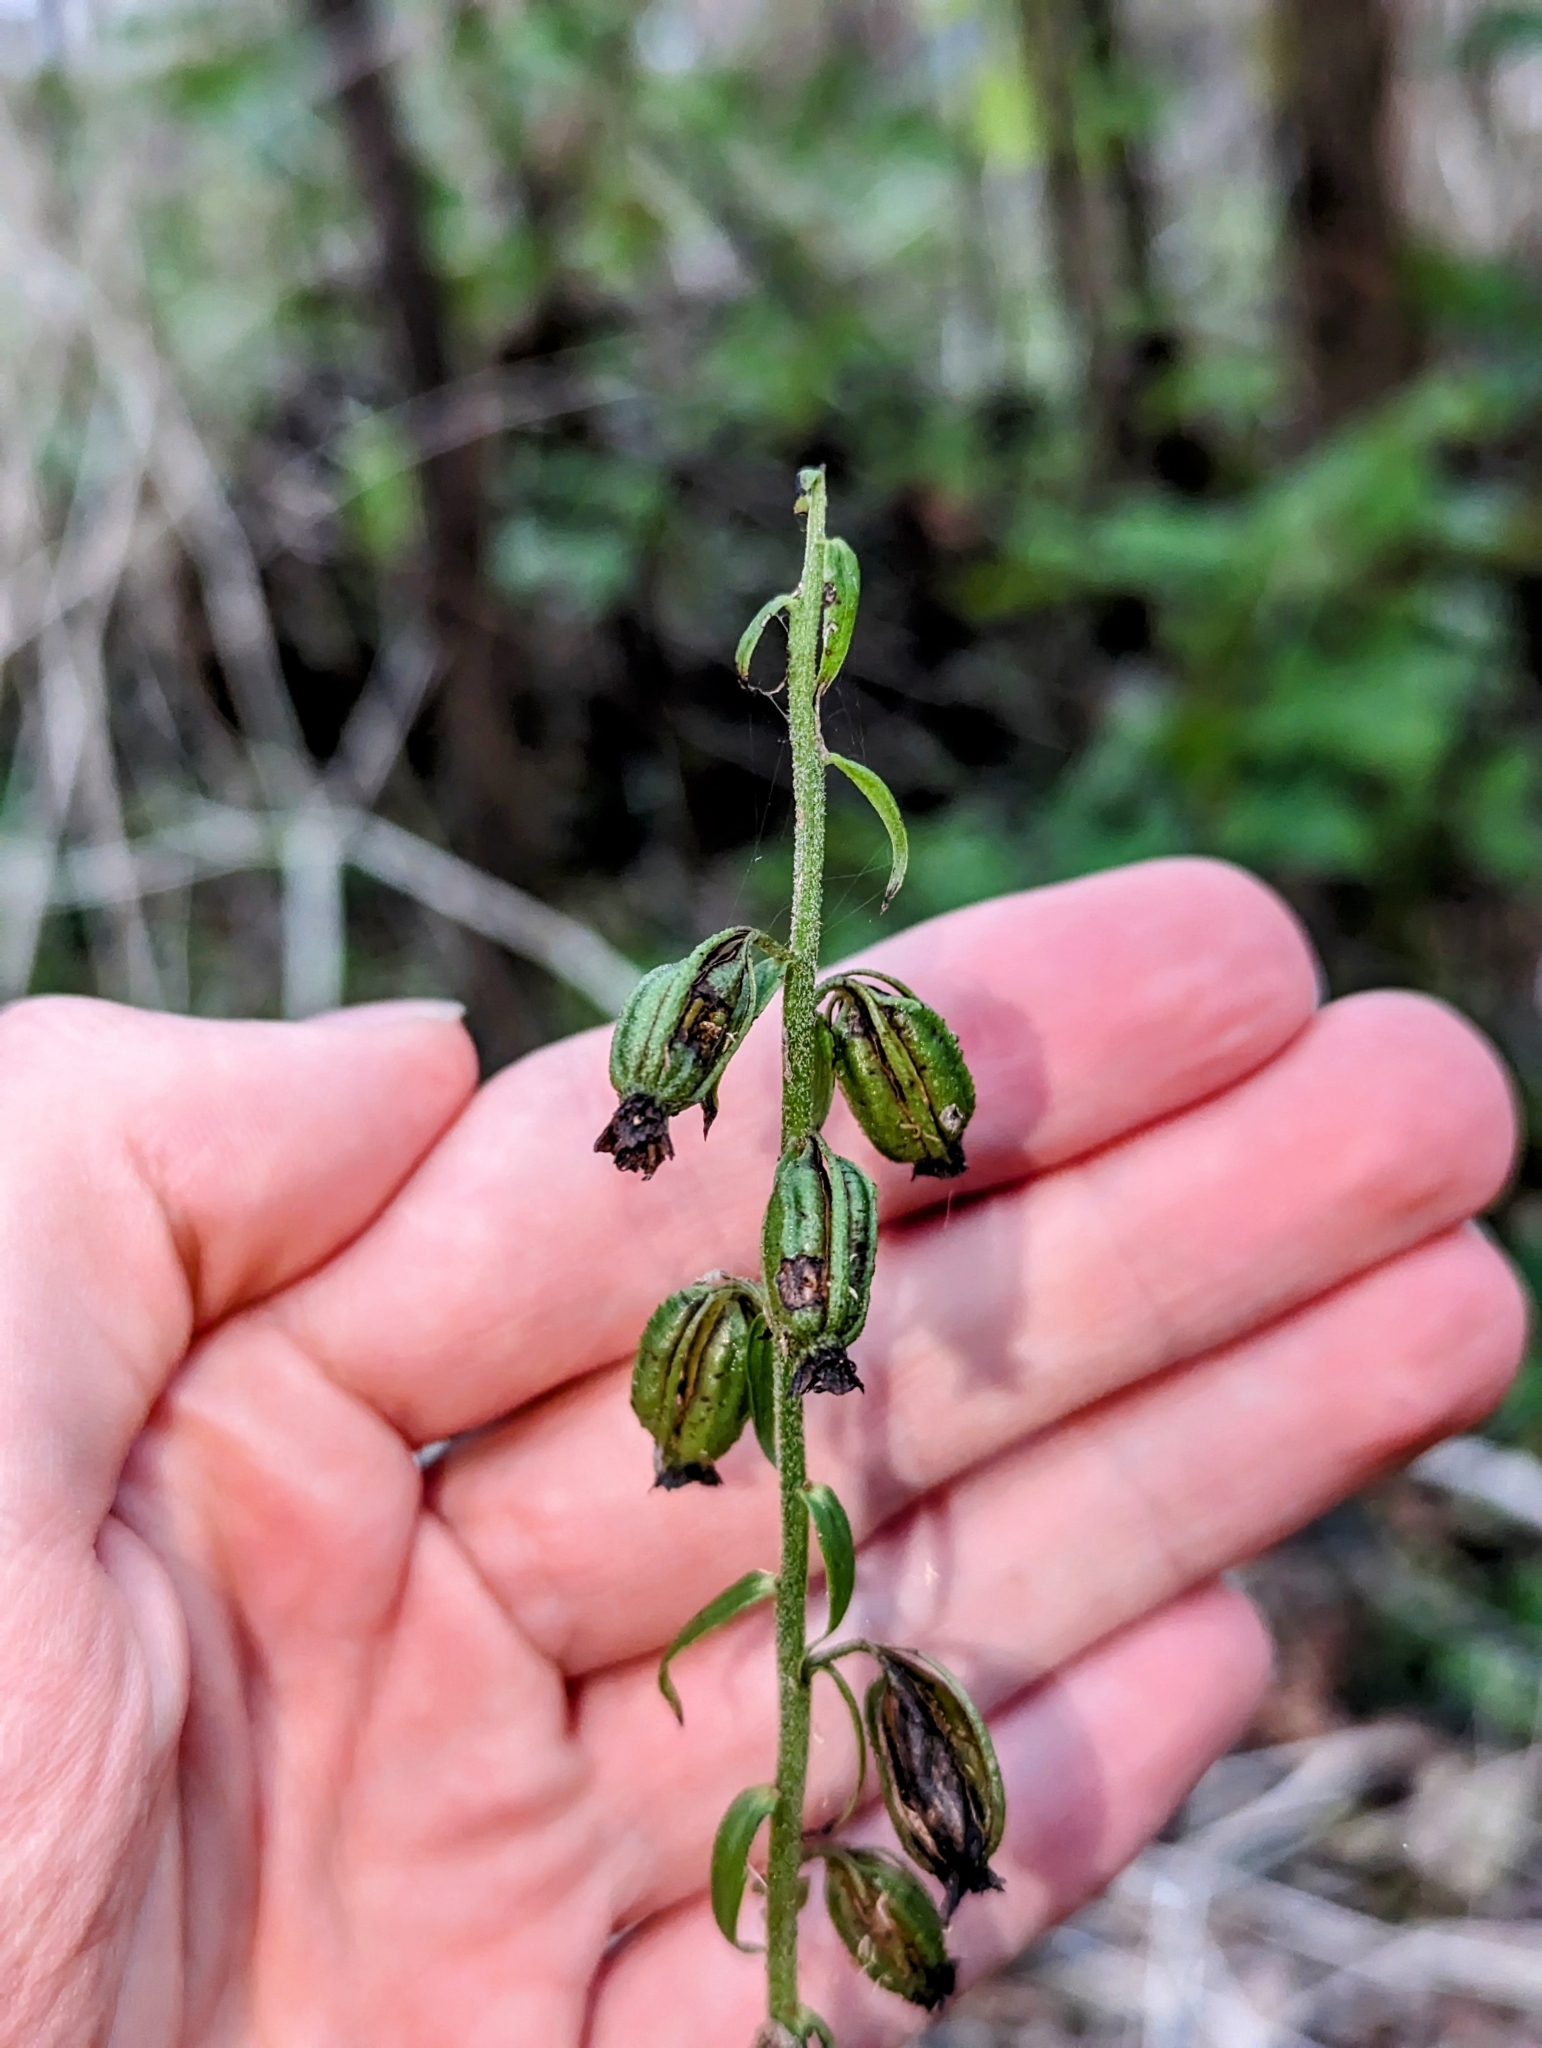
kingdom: Plantae
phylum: Tracheophyta
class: Liliopsida
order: Asparagales
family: Orchidaceae
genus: Epipactis
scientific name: Epipactis helleborine
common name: Broad-leaved helleborine
